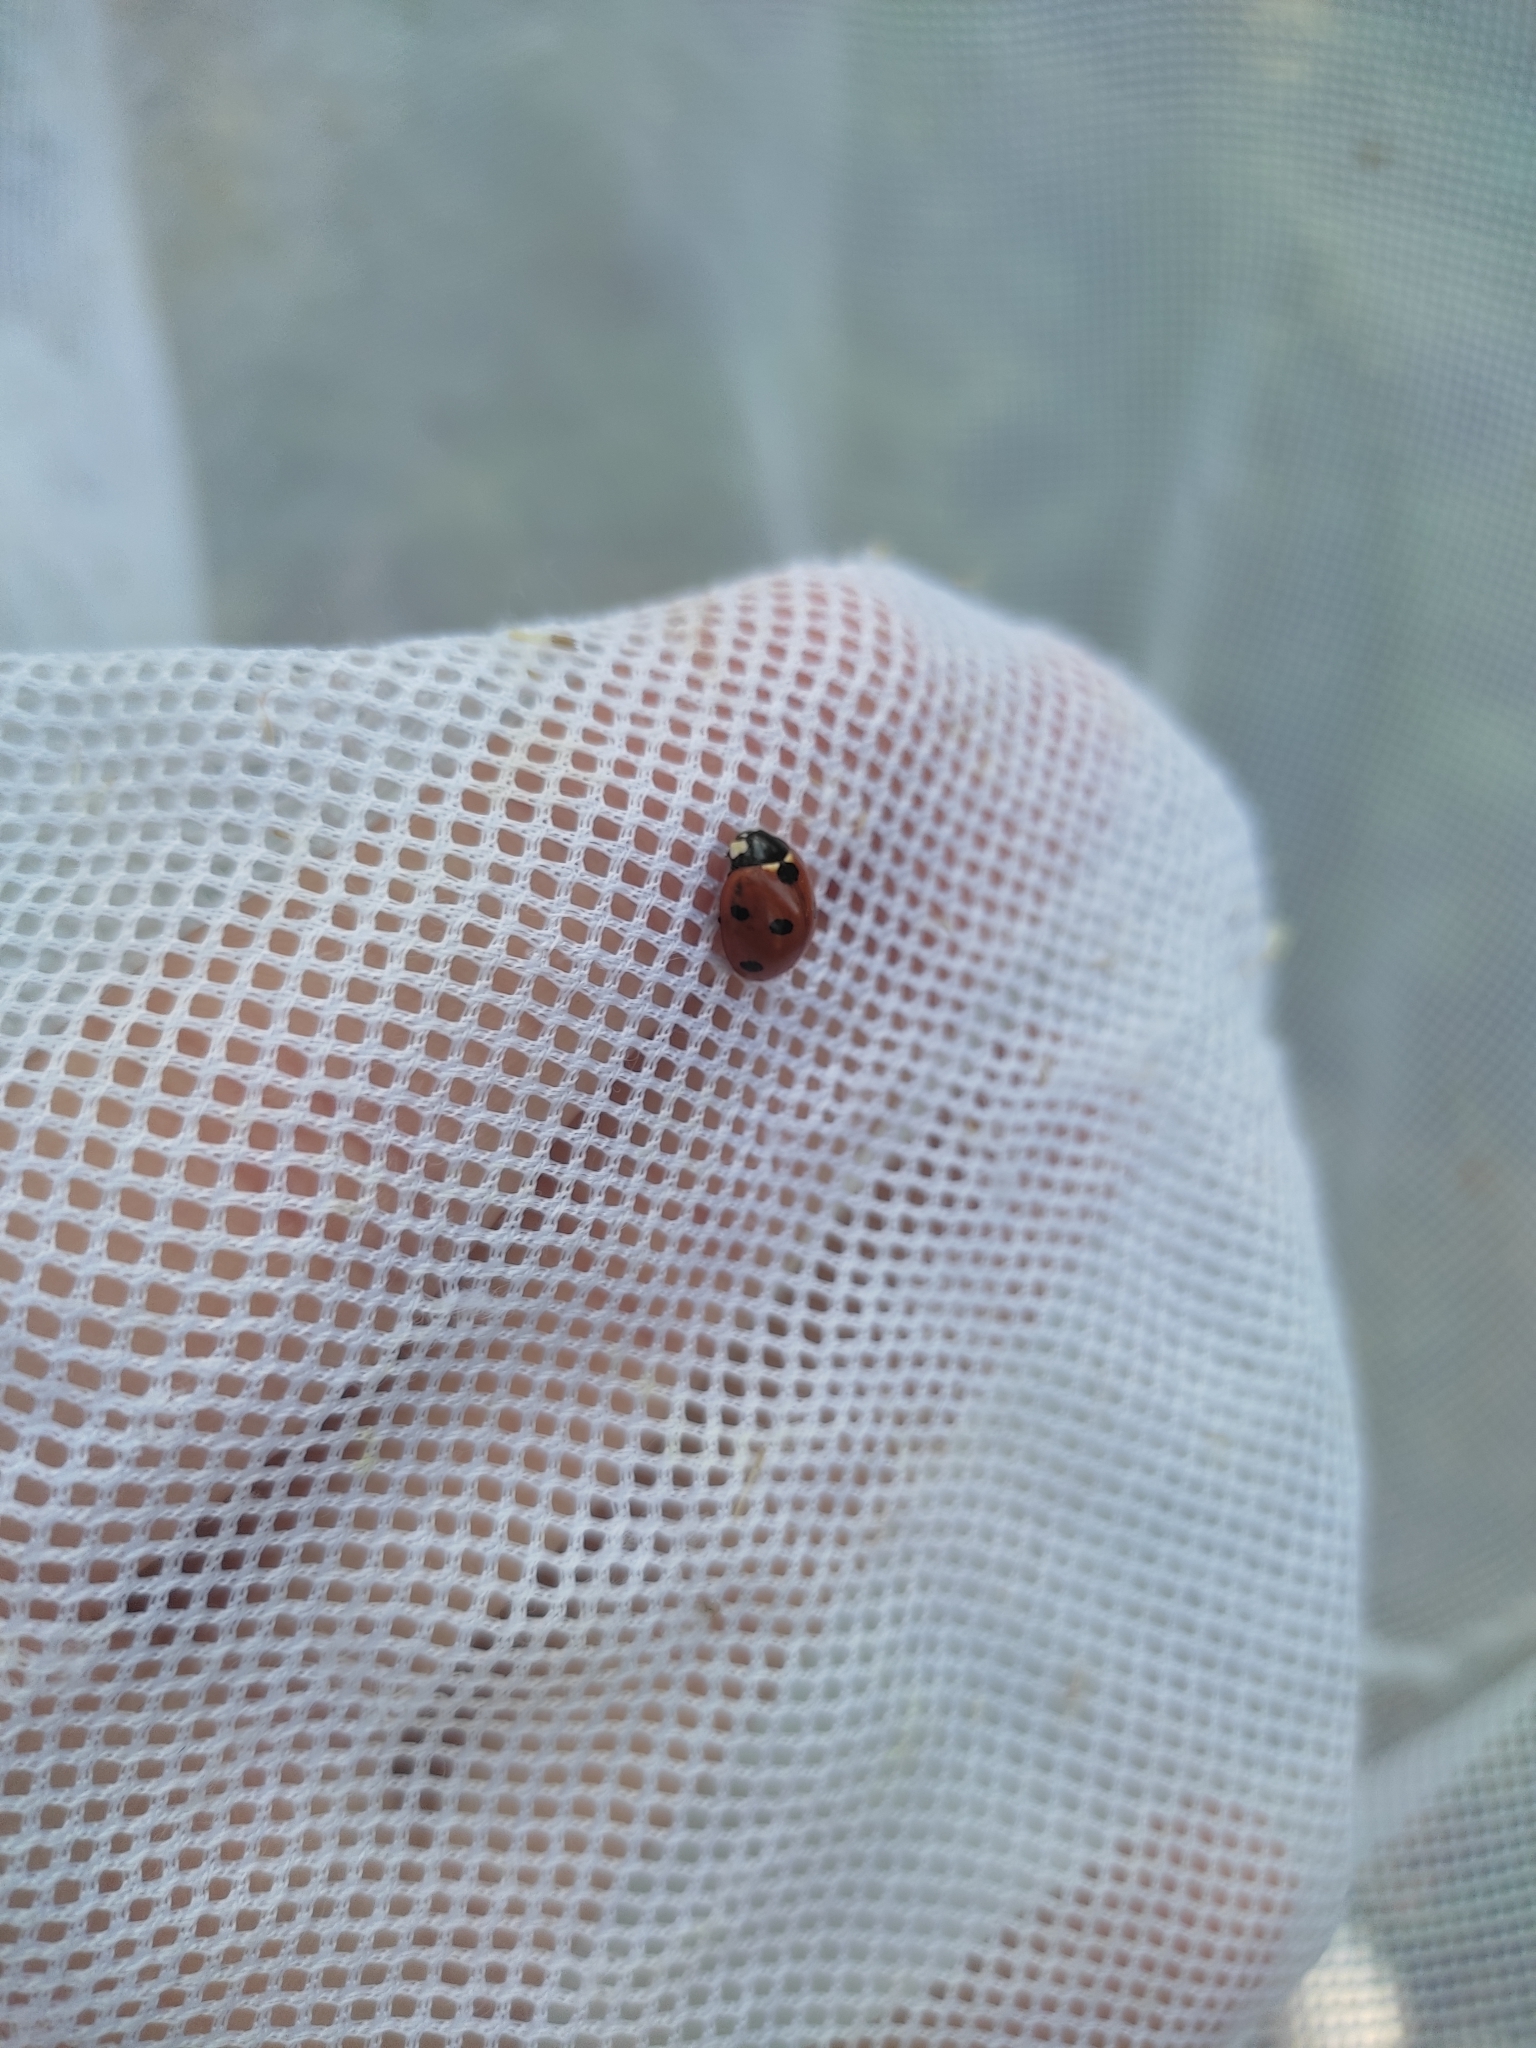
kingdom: Animalia
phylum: Arthropoda
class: Insecta
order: Coleoptera
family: Coccinellidae
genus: Coccinella
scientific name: Coccinella septempunctata
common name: Sevenspotted lady beetle
